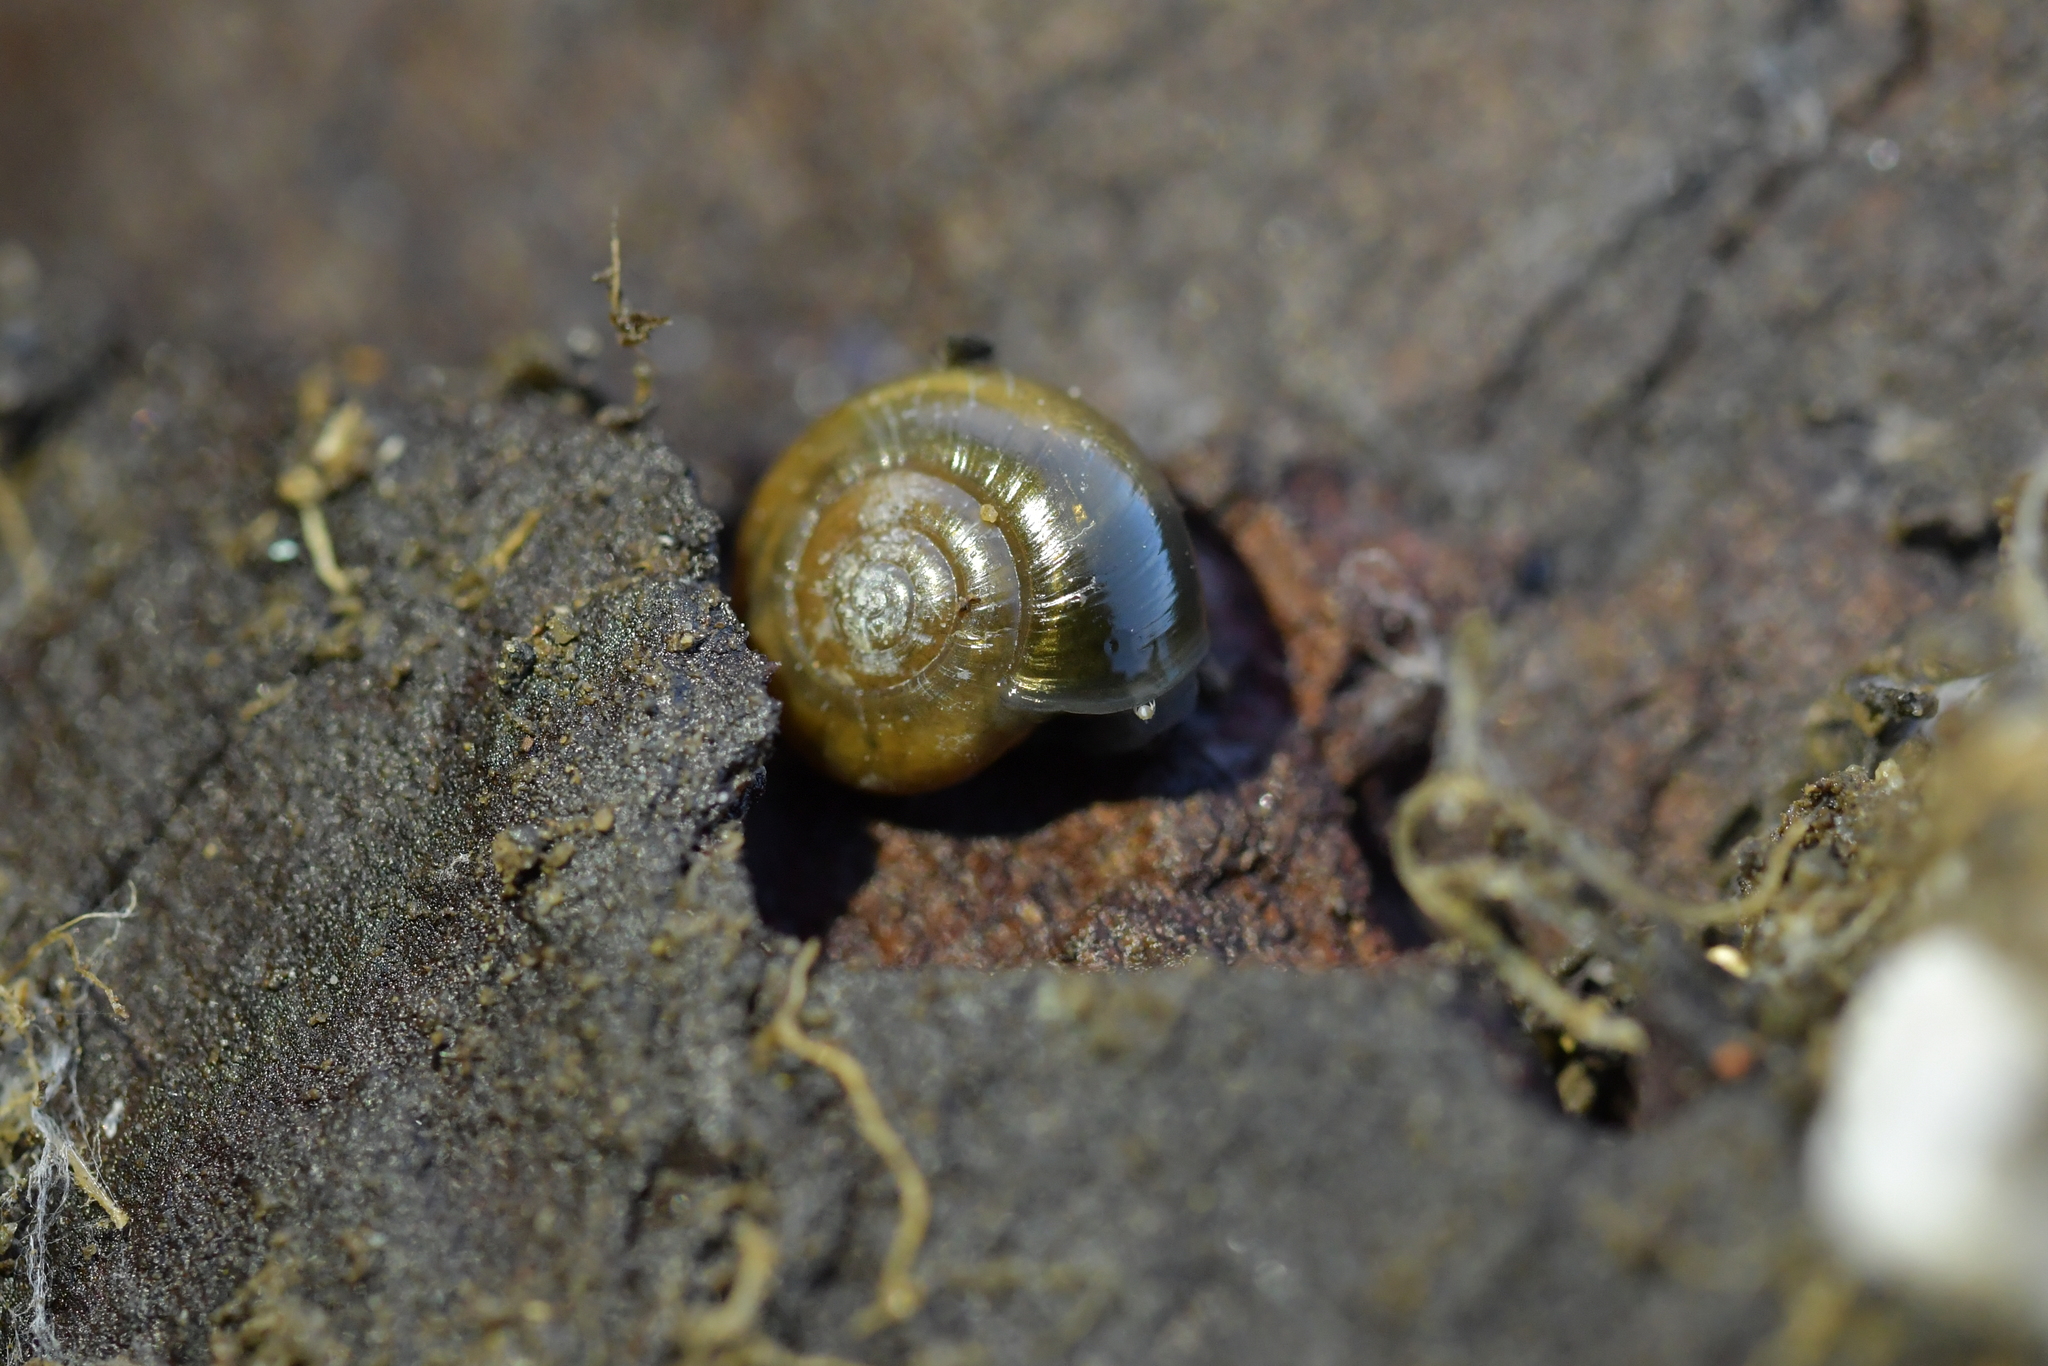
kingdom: Animalia
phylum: Mollusca
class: Gastropoda
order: Stylommatophora
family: Oxychilidae
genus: Oxychilus
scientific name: Oxychilus draparnaudi
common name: Draparnaud's glass snail
